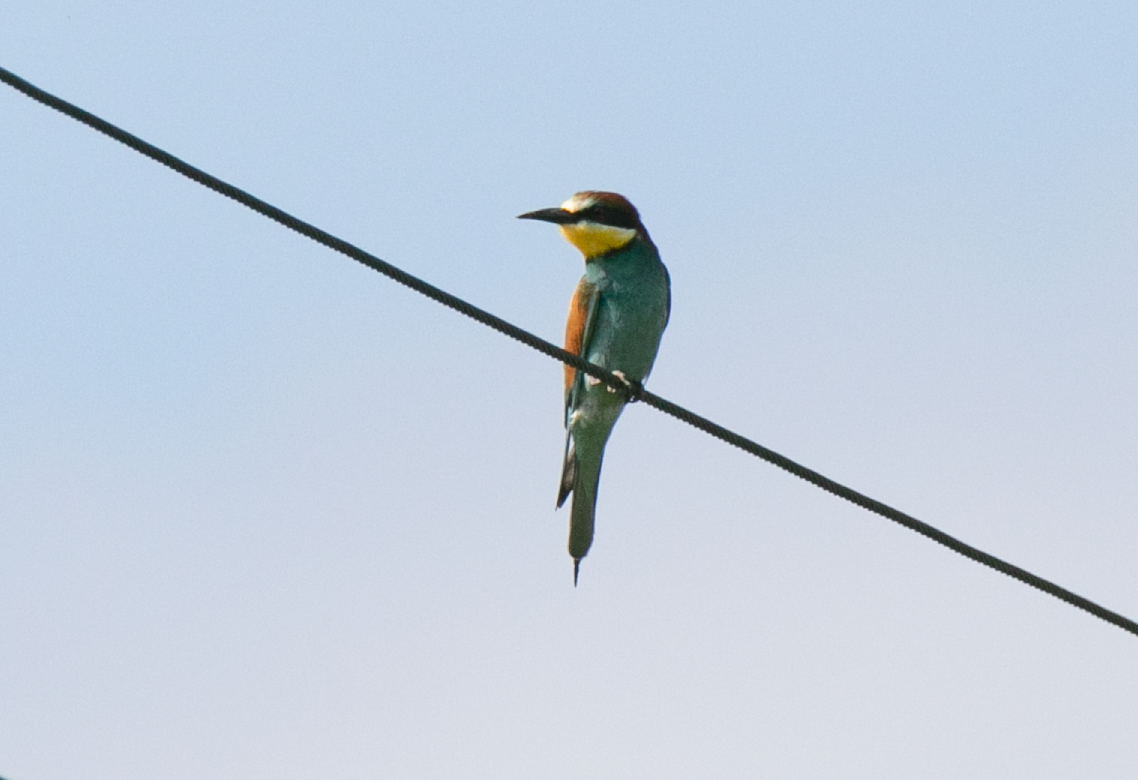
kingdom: Animalia
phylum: Chordata
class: Aves
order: Coraciiformes
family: Meropidae
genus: Merops
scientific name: Merops apiaster
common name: European bee-eater
